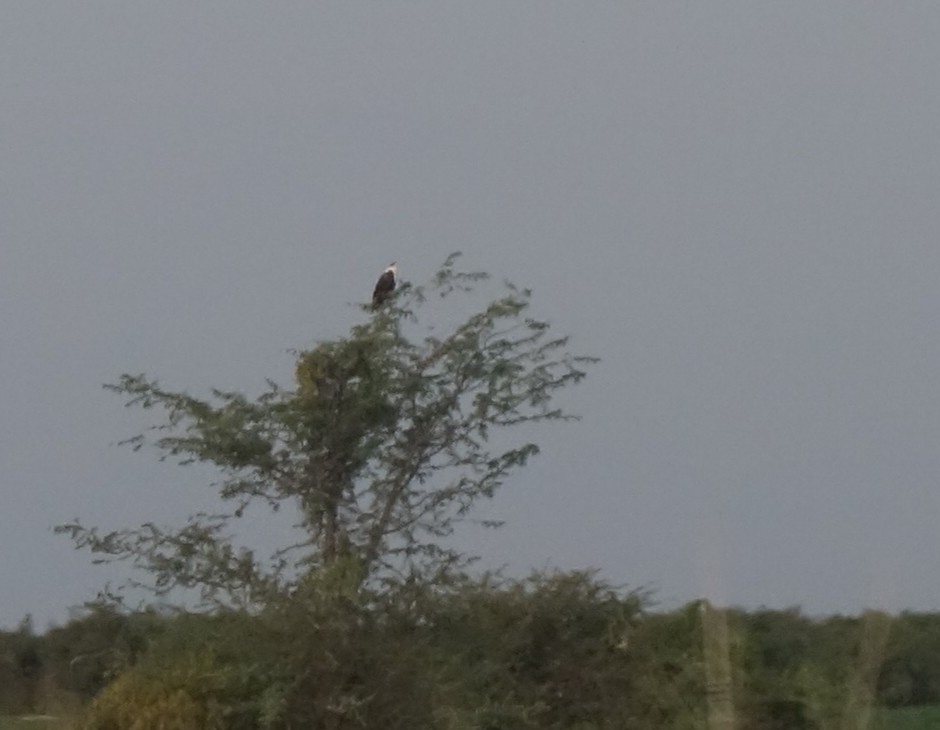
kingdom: Animalia
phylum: Chordata
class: Aves
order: Accipitriformes
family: Accipitridae
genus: Haliaeetus
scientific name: Haliaeetus vocifer
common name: African fish eagle
